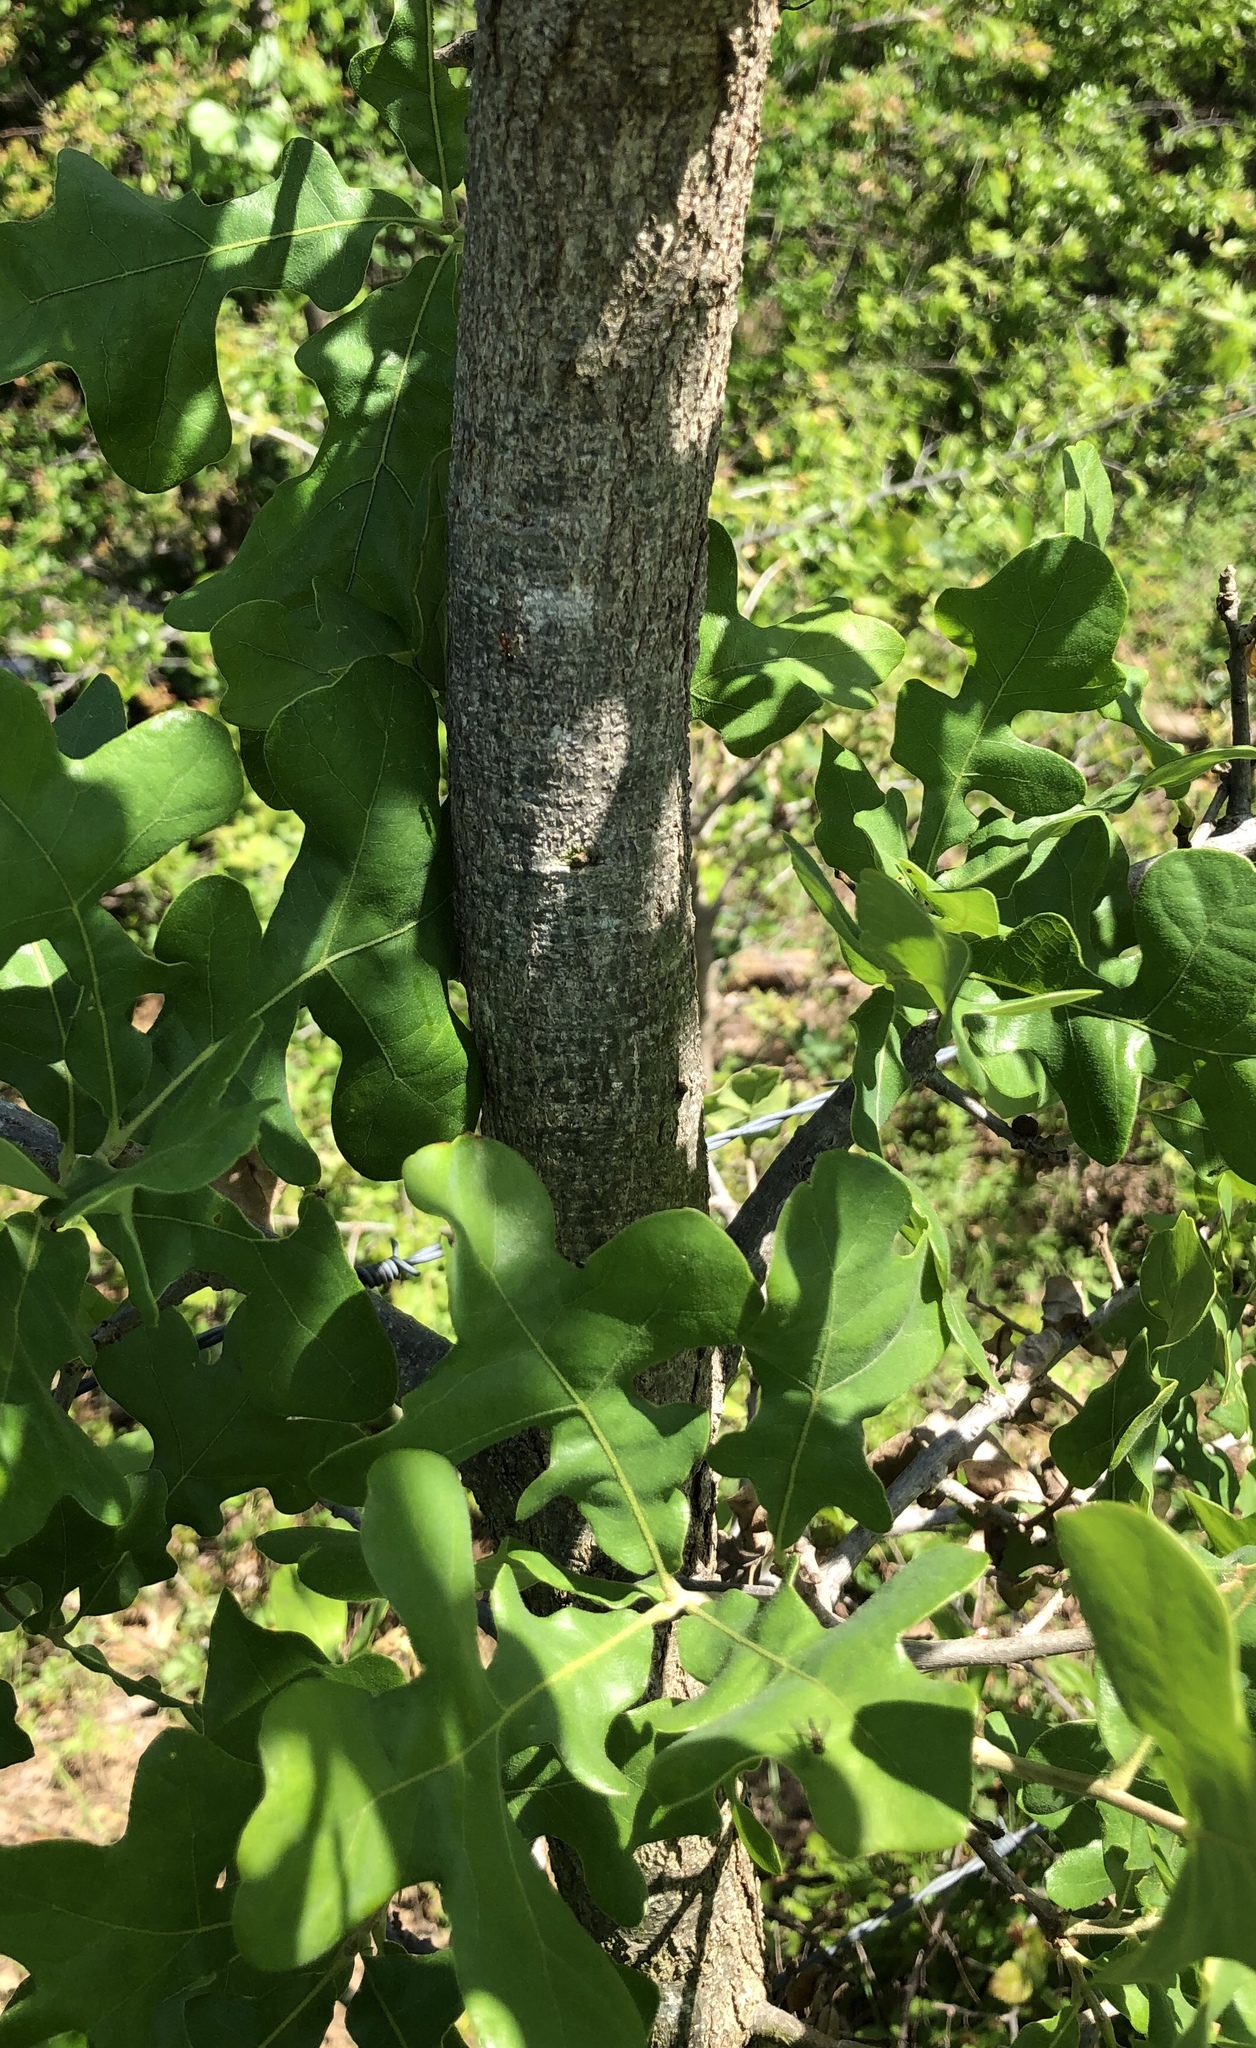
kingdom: Plantae
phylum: Tracheophyta
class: Magnoliopsida
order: Fagales
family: Fagaceae
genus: Quercus
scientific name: Quercus stellata
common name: Post oak
